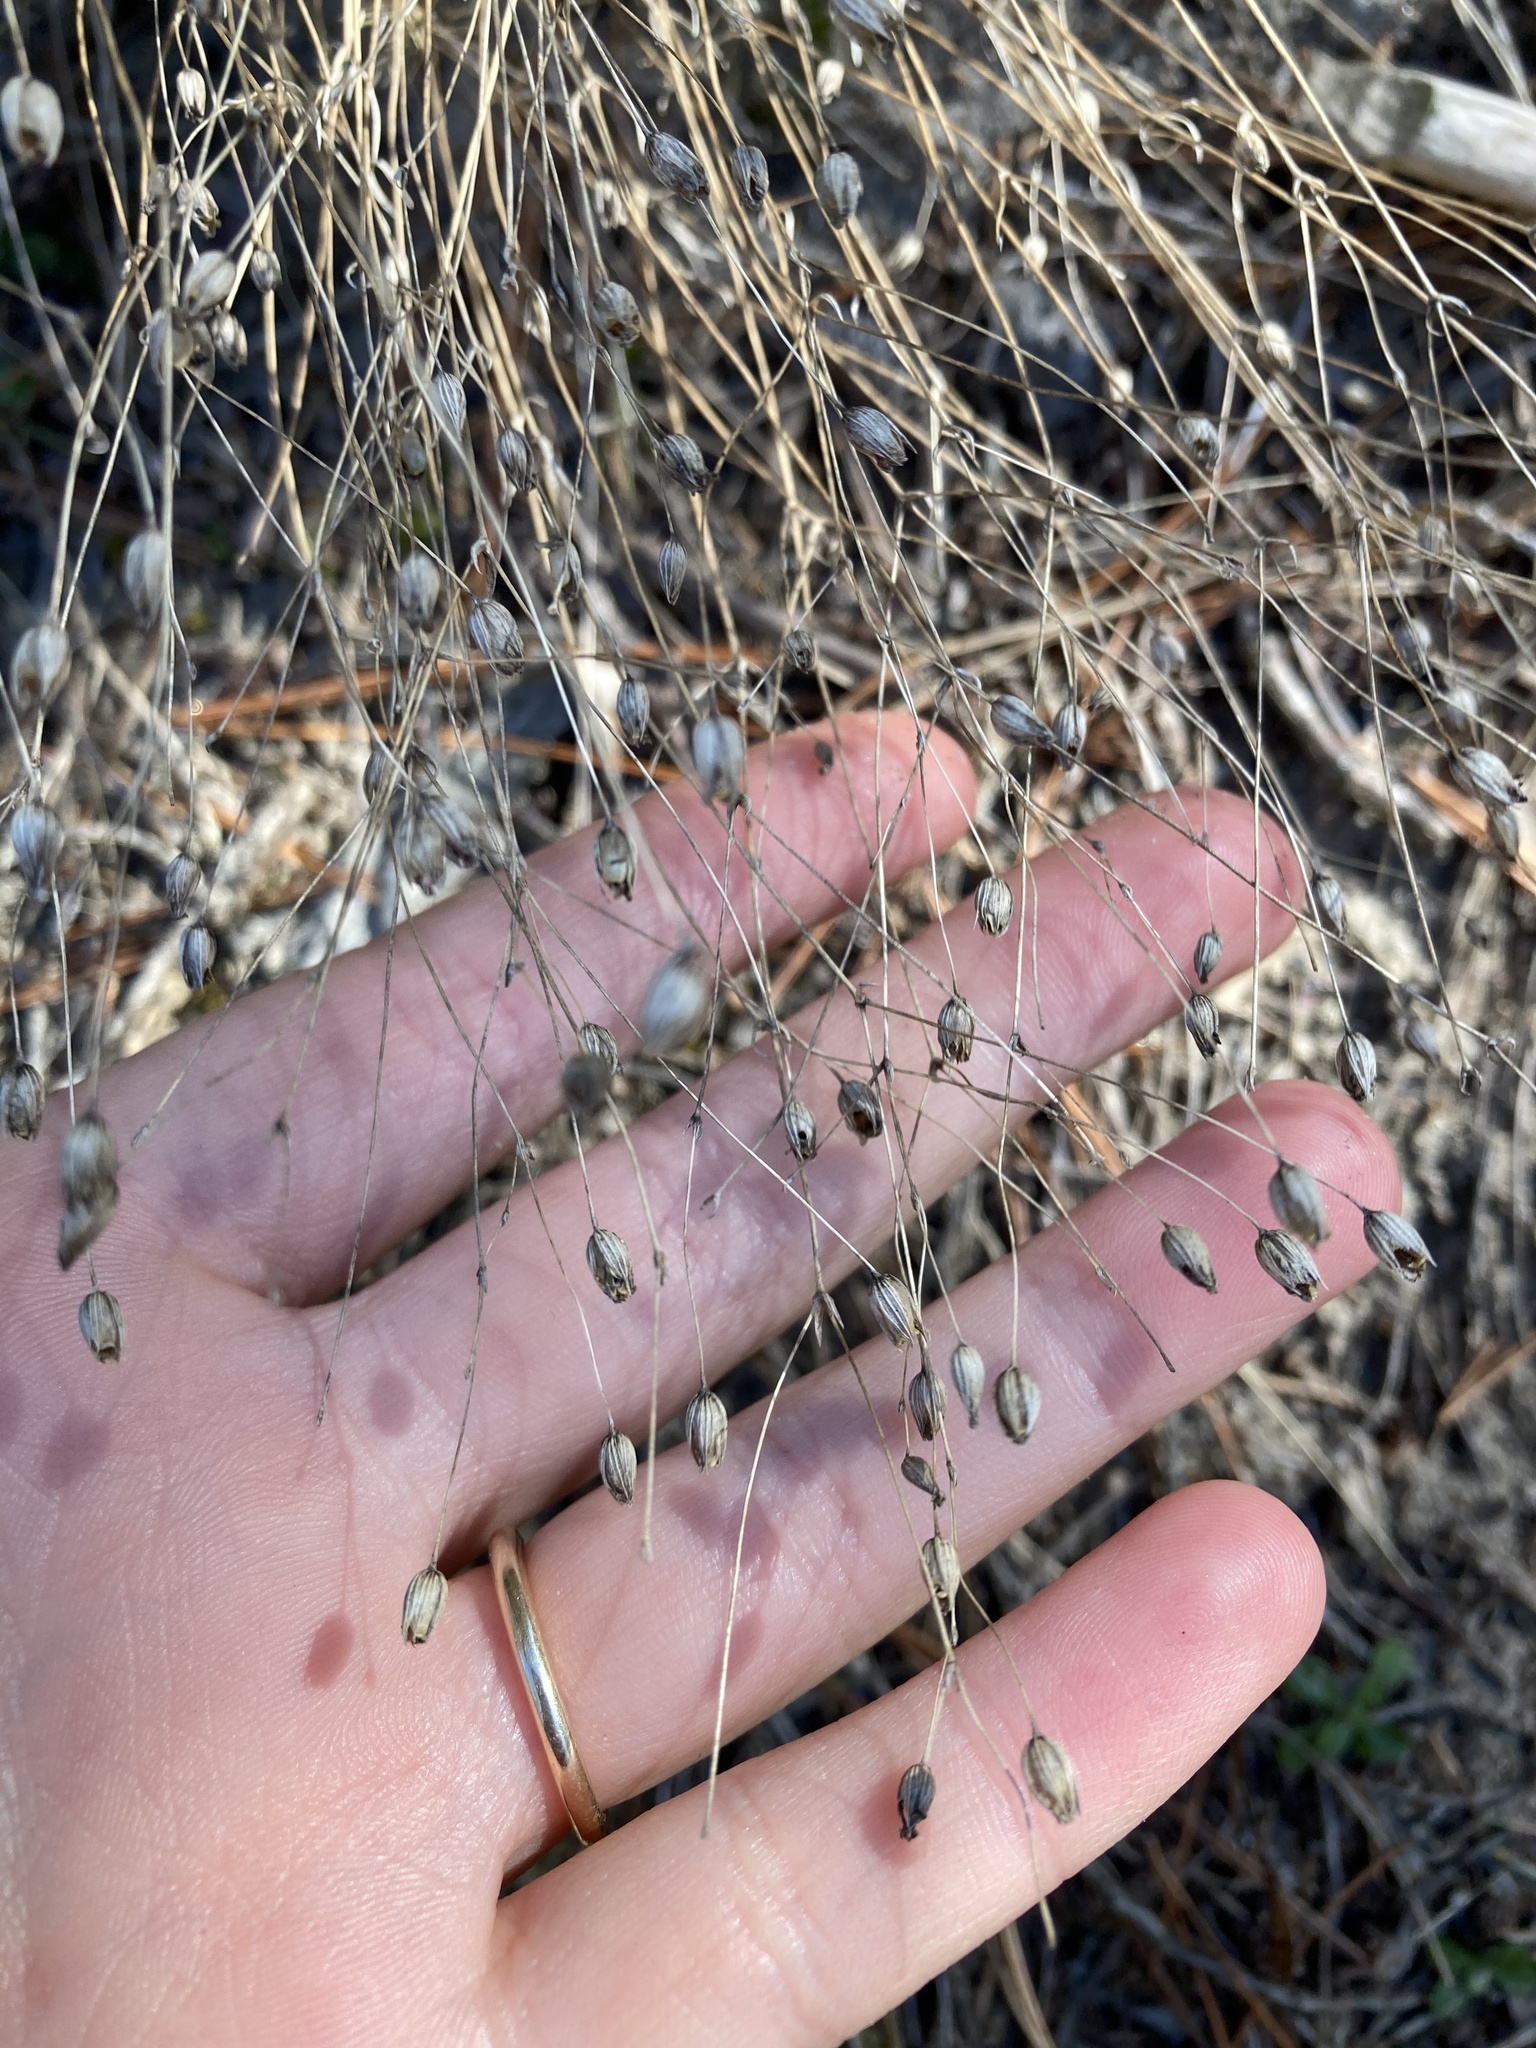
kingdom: Plantae
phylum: Tracheophyta
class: Magnoliopsida
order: Caryophyllales
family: Caryophyllaceae
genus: Sabulina
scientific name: Sabulina michauxii
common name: Michaux's stitchwort
